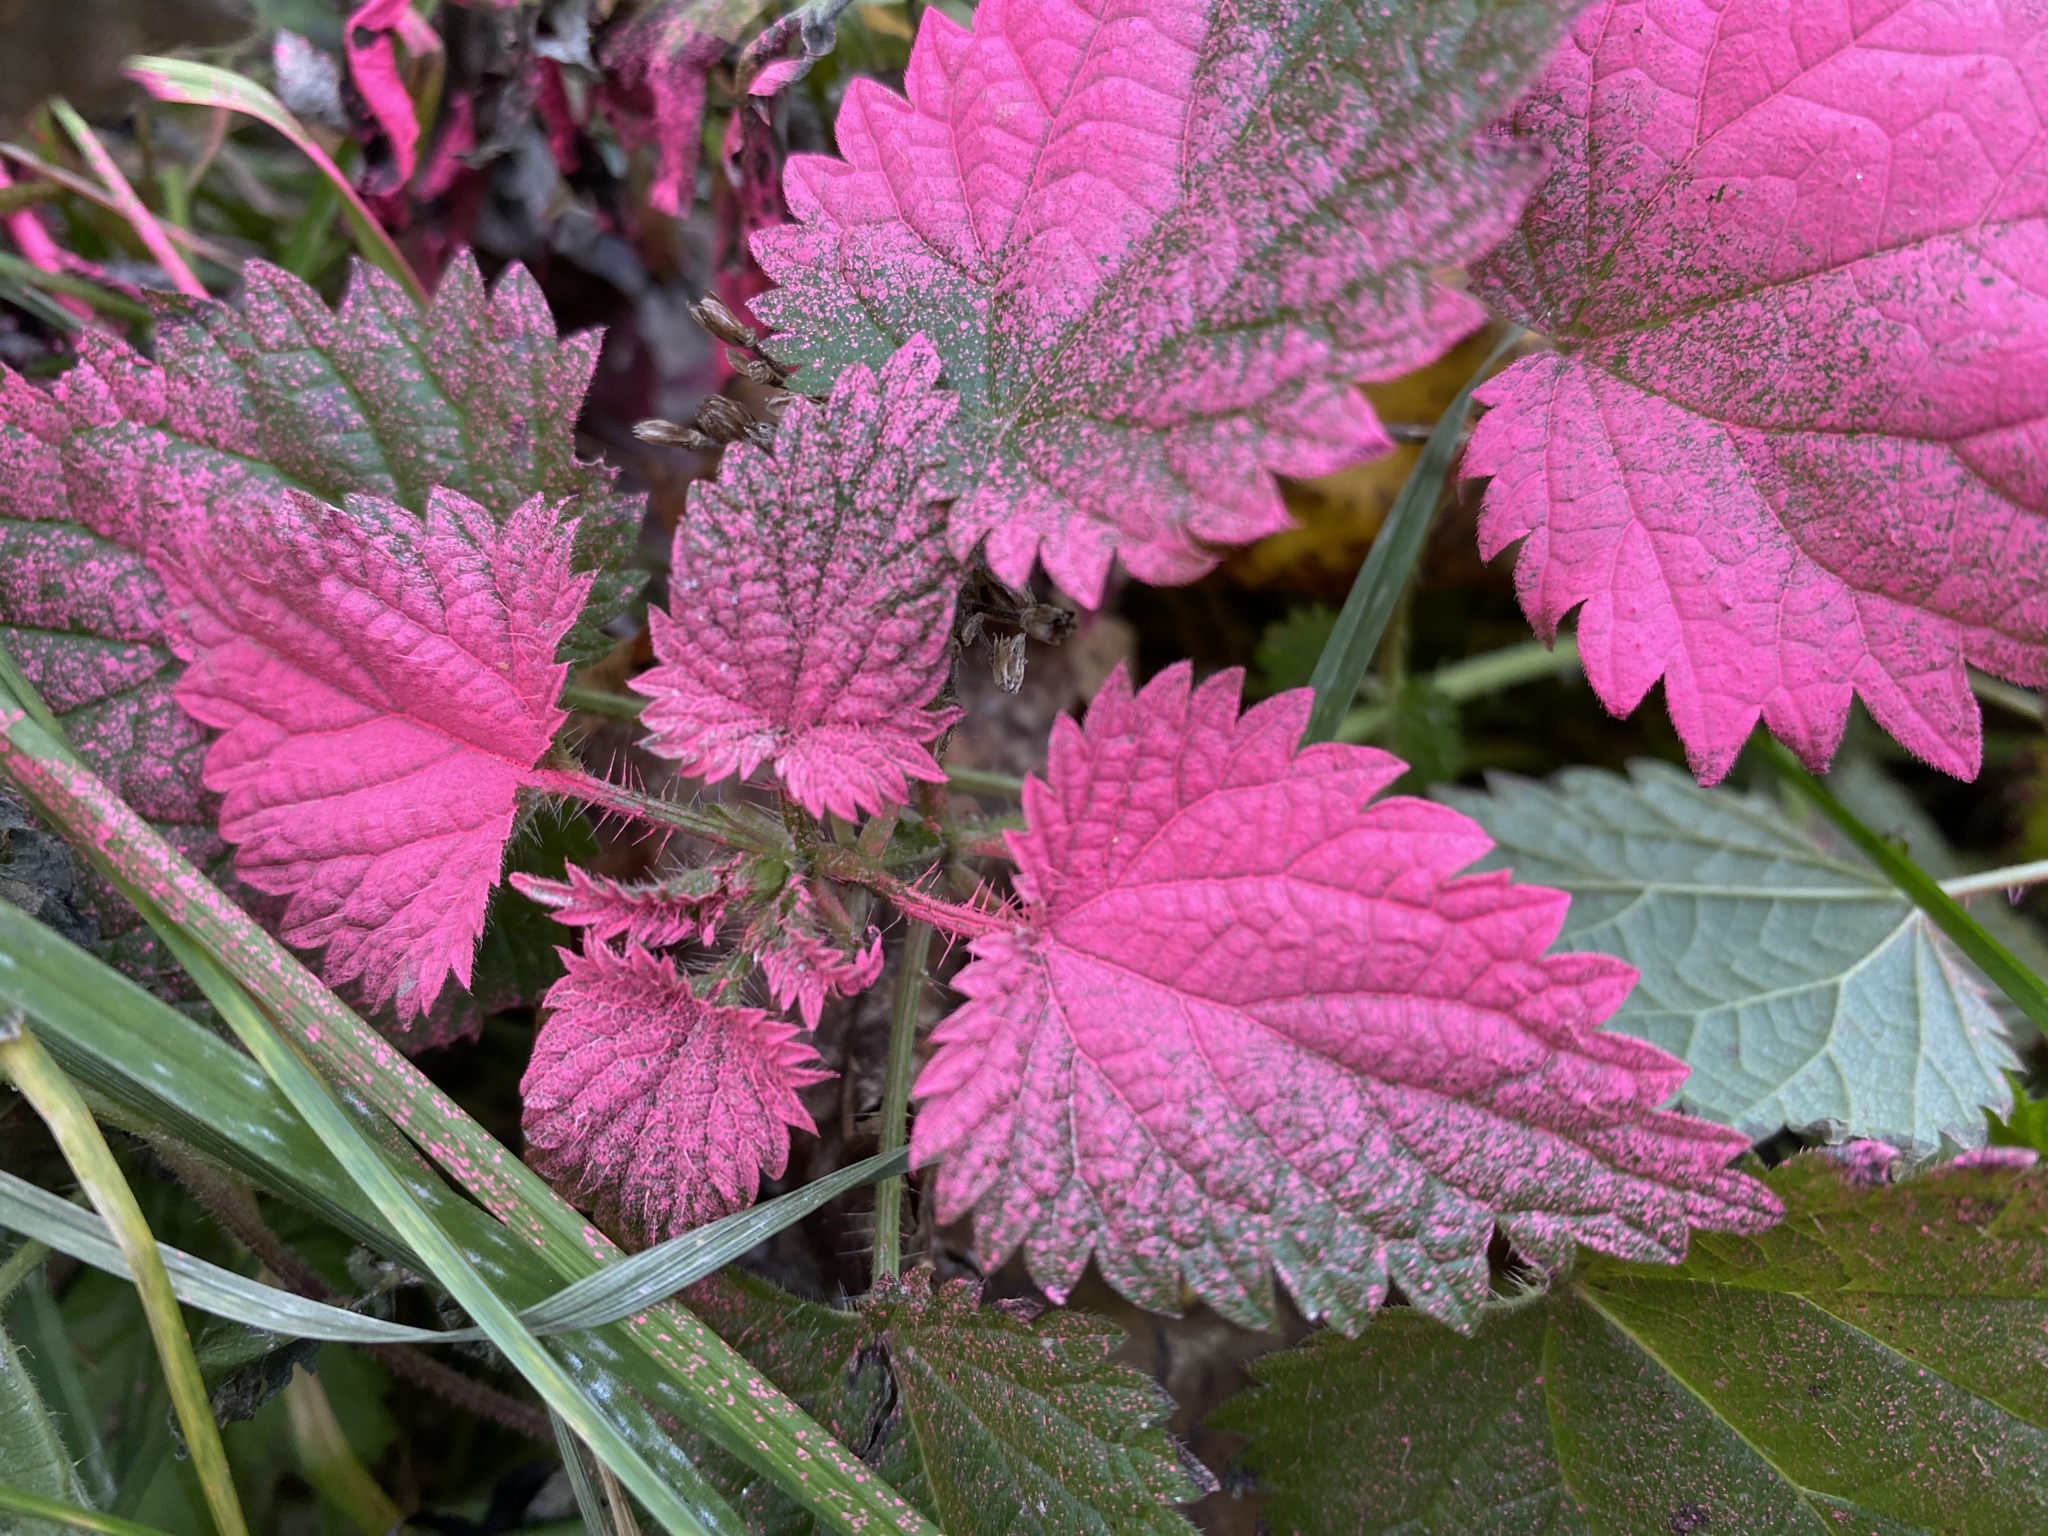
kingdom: Plantae
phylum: Tracheophyta
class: Magnoliopsida
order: Rosales
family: Urticaceae
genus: Urtica
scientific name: Urtica dioica
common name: Common nettle
